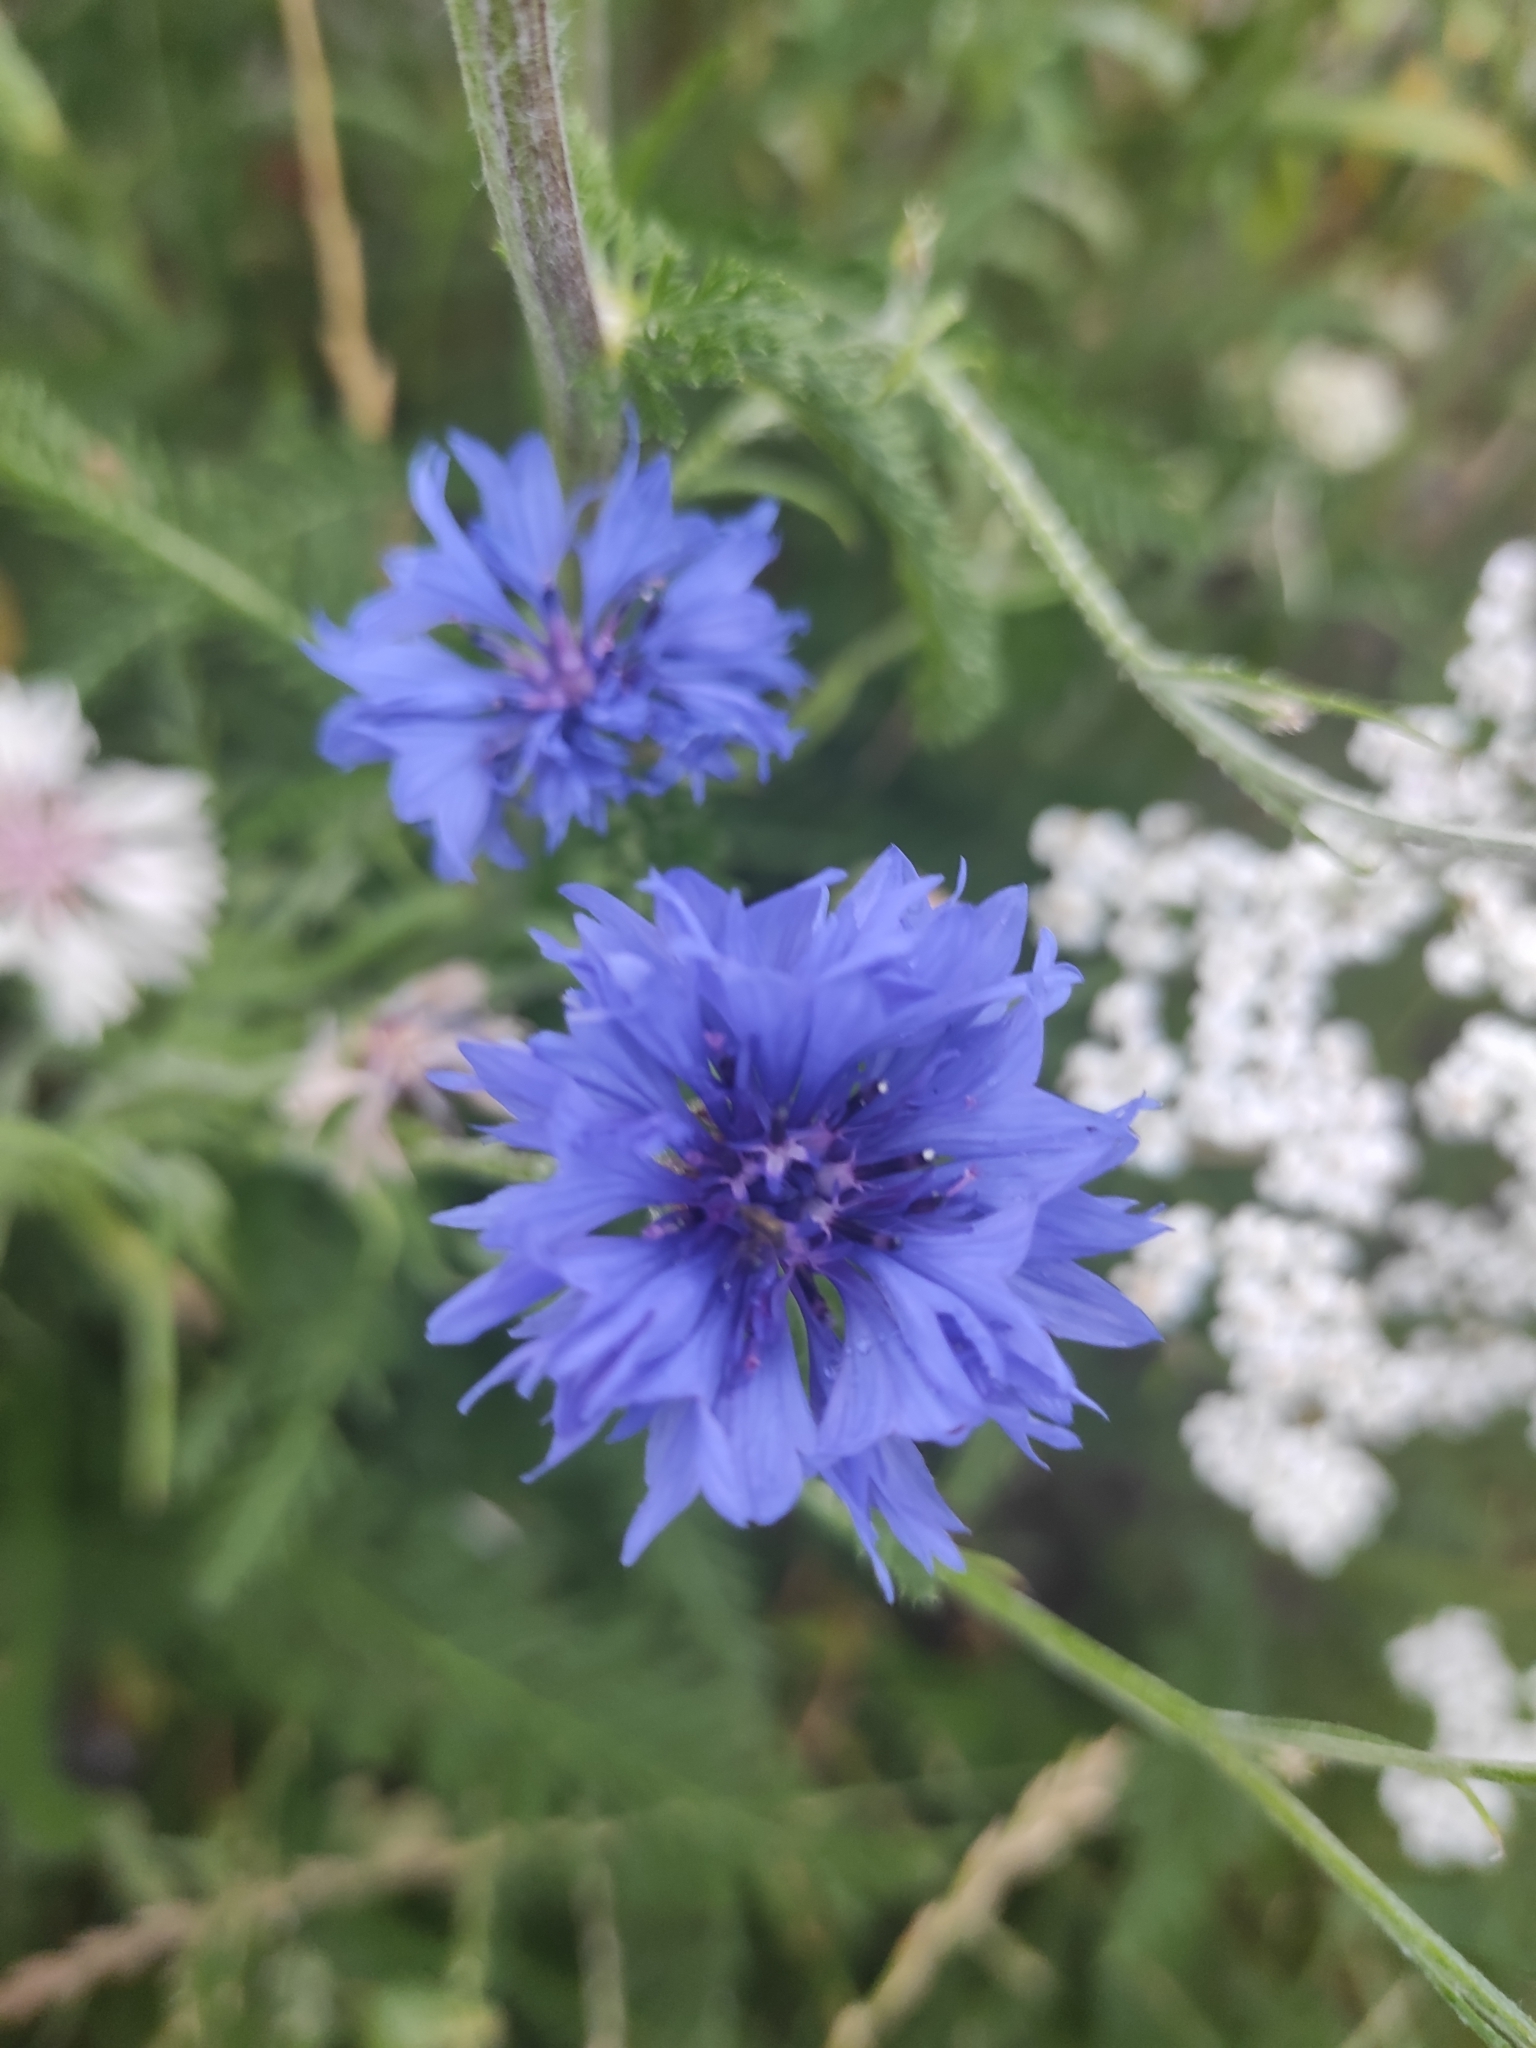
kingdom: Plantae
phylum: Tracheophyta
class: Magnoliopsida
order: Asterales
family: Asteraceae
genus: Centaurea
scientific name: Centaurea cyanus
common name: Cornflower
